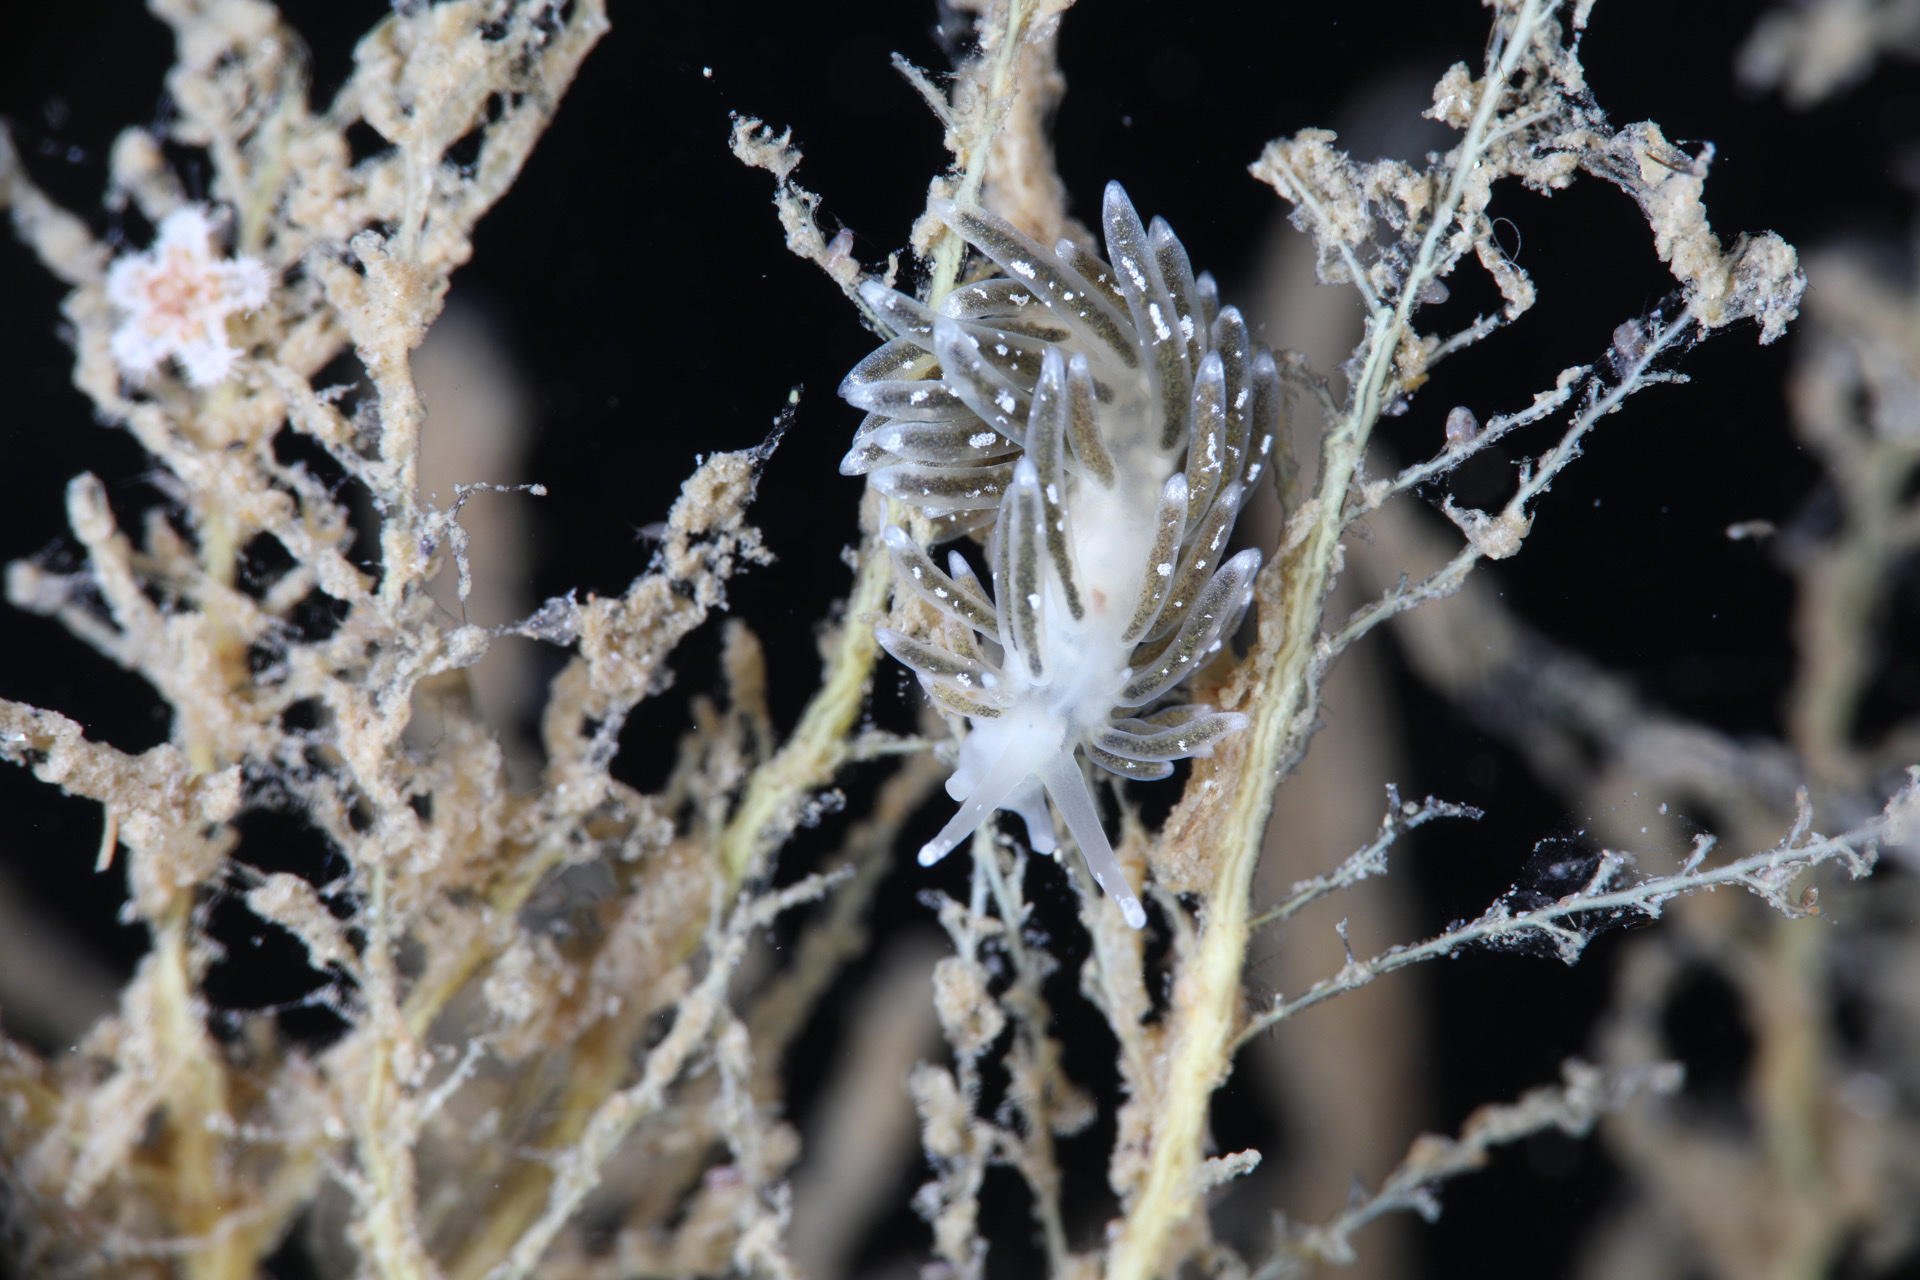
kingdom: Animalia
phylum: Mollusca
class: Gastropoda
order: Nudibranchia
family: Trinchesiidae
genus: Zelentia
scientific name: Zelentia pustulata
